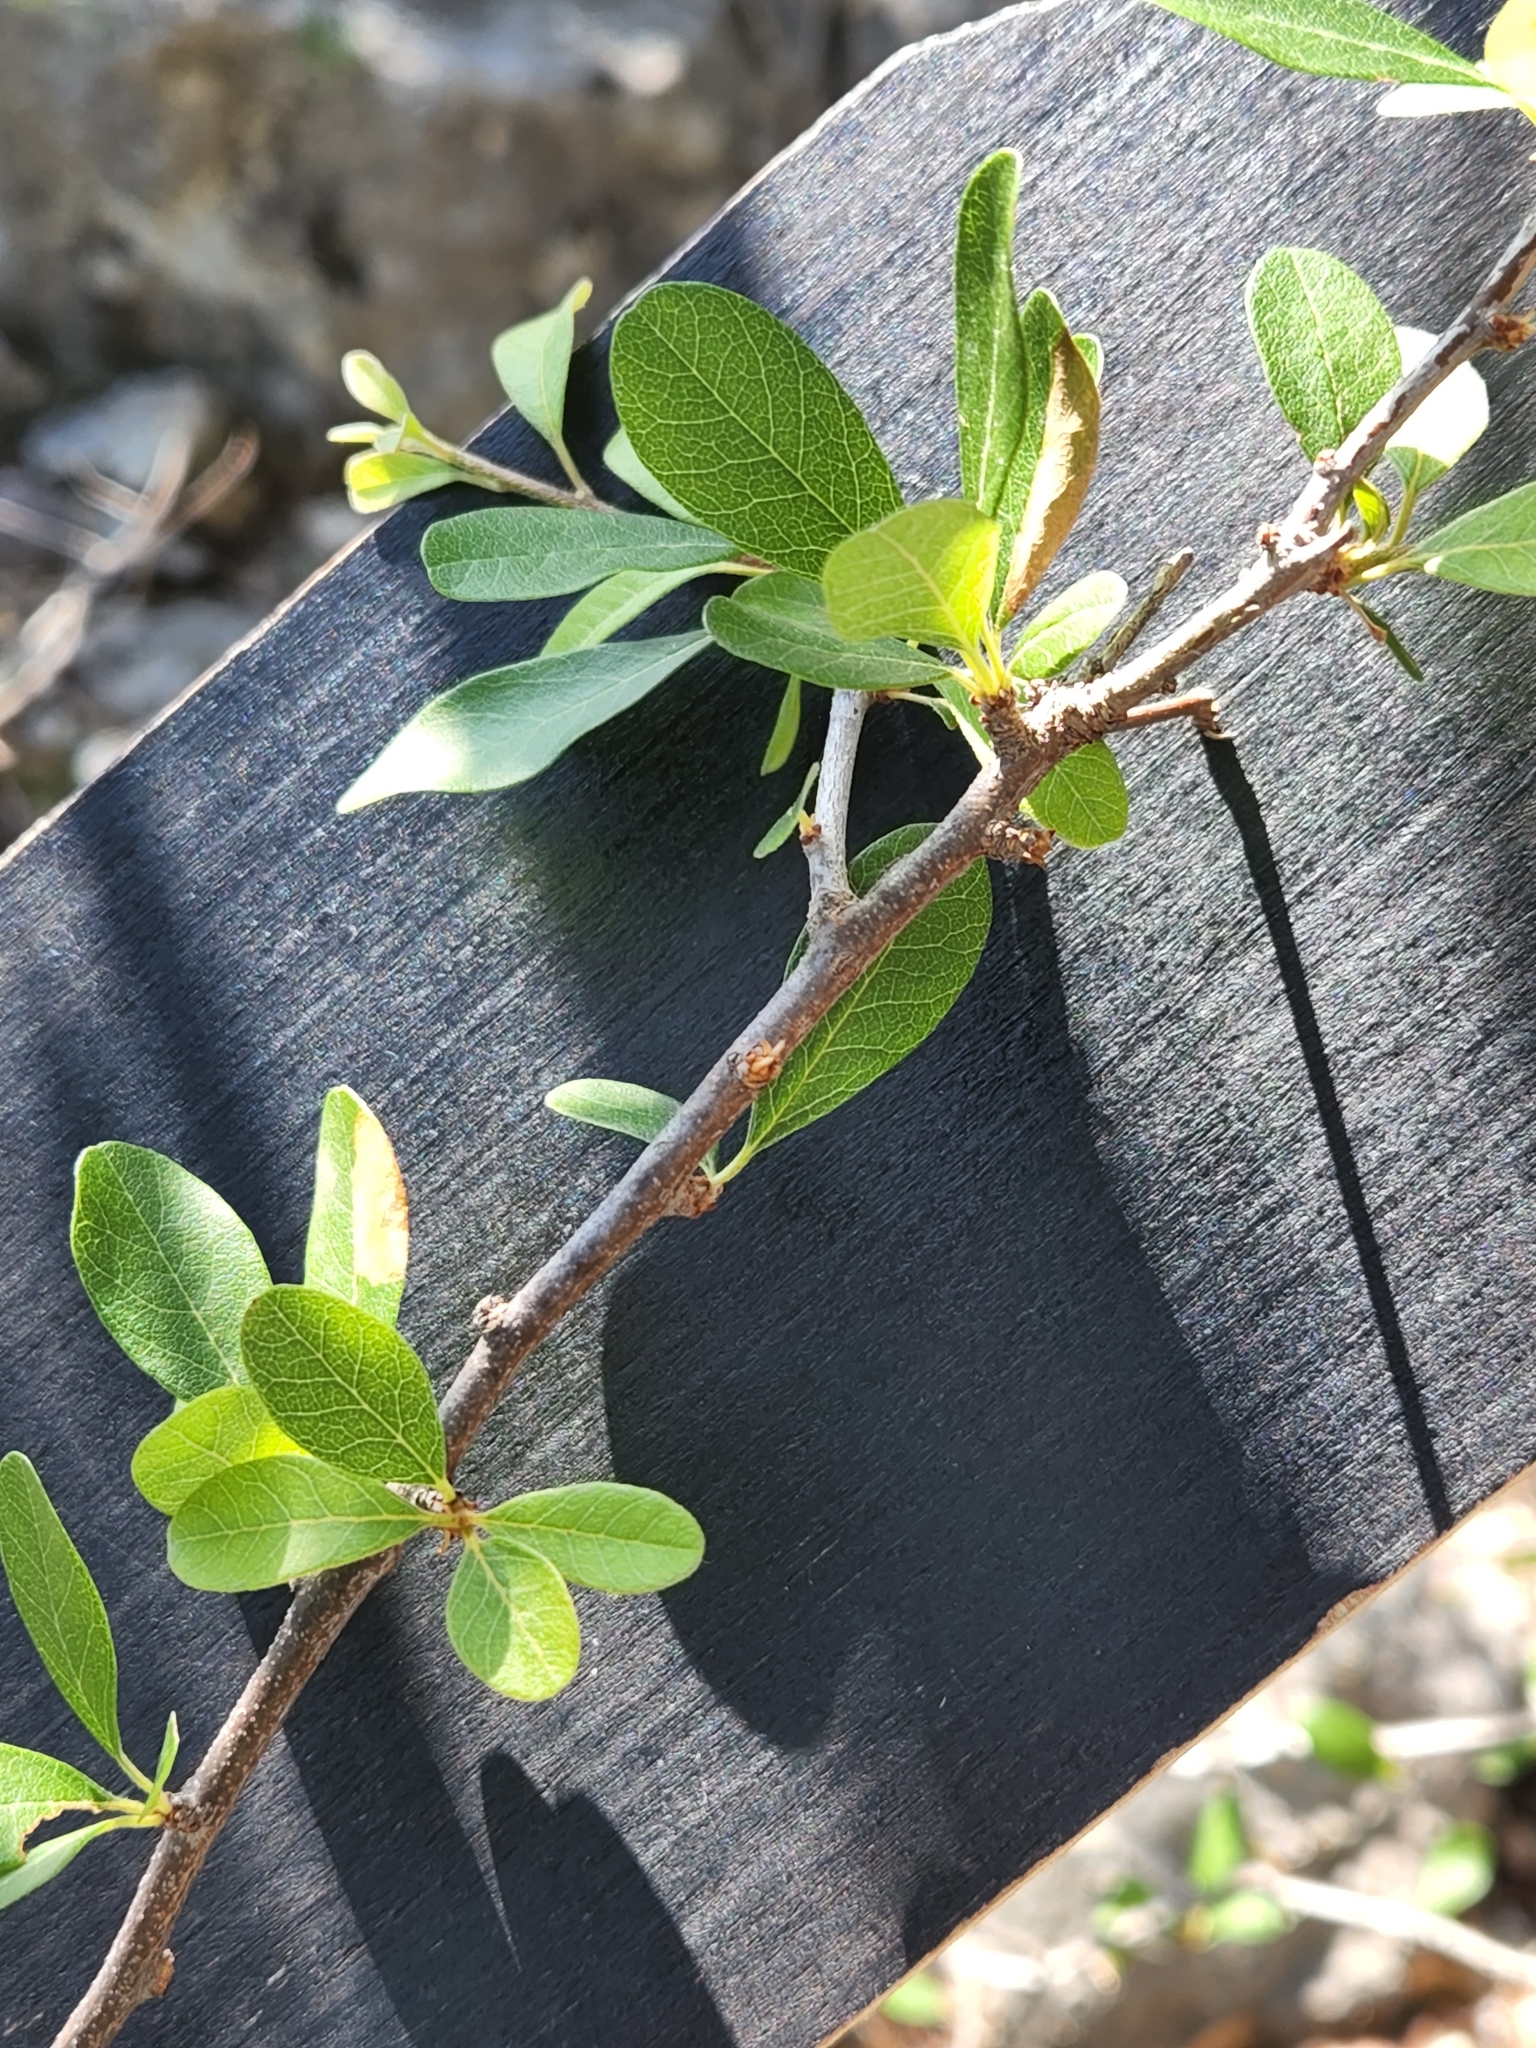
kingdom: Plantae
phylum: Tracheophyta
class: Magnoliopsida
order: Ericales
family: Sapotaceae
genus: Sideroxylon
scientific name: Sideroxylon lanuginosum
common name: Chittamwood
